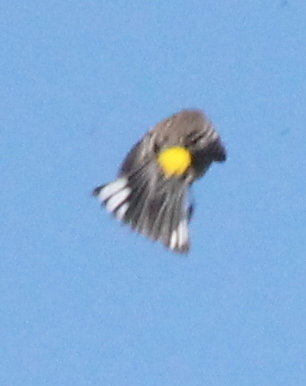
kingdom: Animalia
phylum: Chordata
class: Aves
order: Passeriformes
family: Parulidae
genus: Setophaga
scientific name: Setophaga coronata
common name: Myrtle warbler
